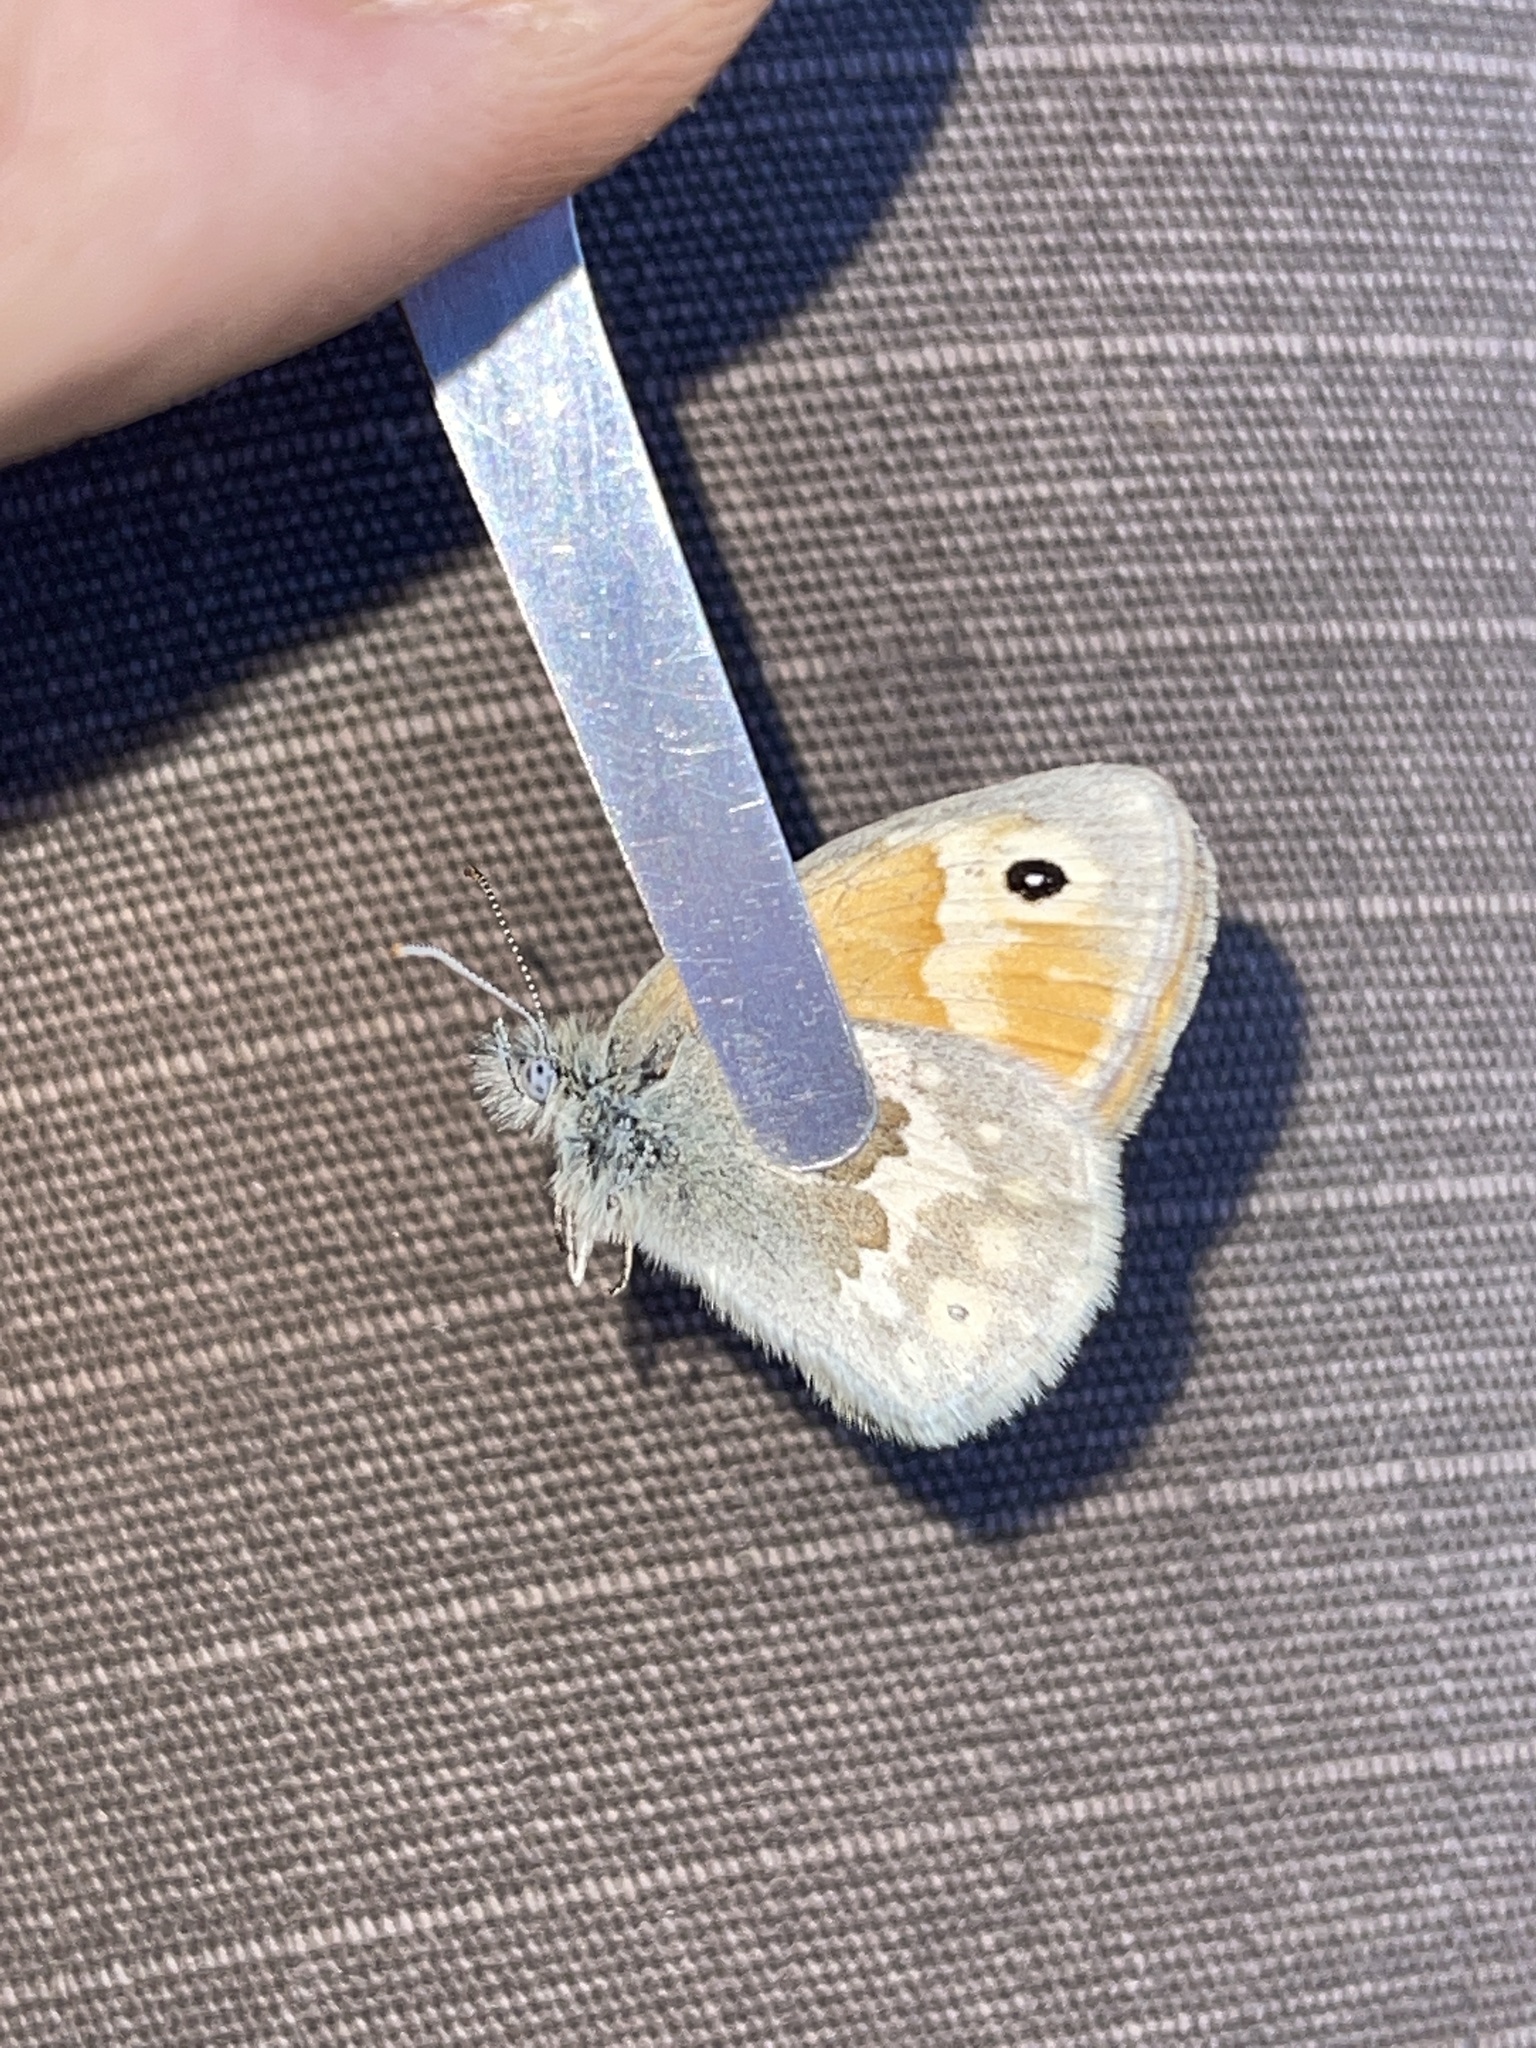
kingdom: Animalia
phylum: Arthropoda
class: Insecta
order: Lepidoptera
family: Nymphalidae
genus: Coenonympha
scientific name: Coenonympha california
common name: Common ringlet
